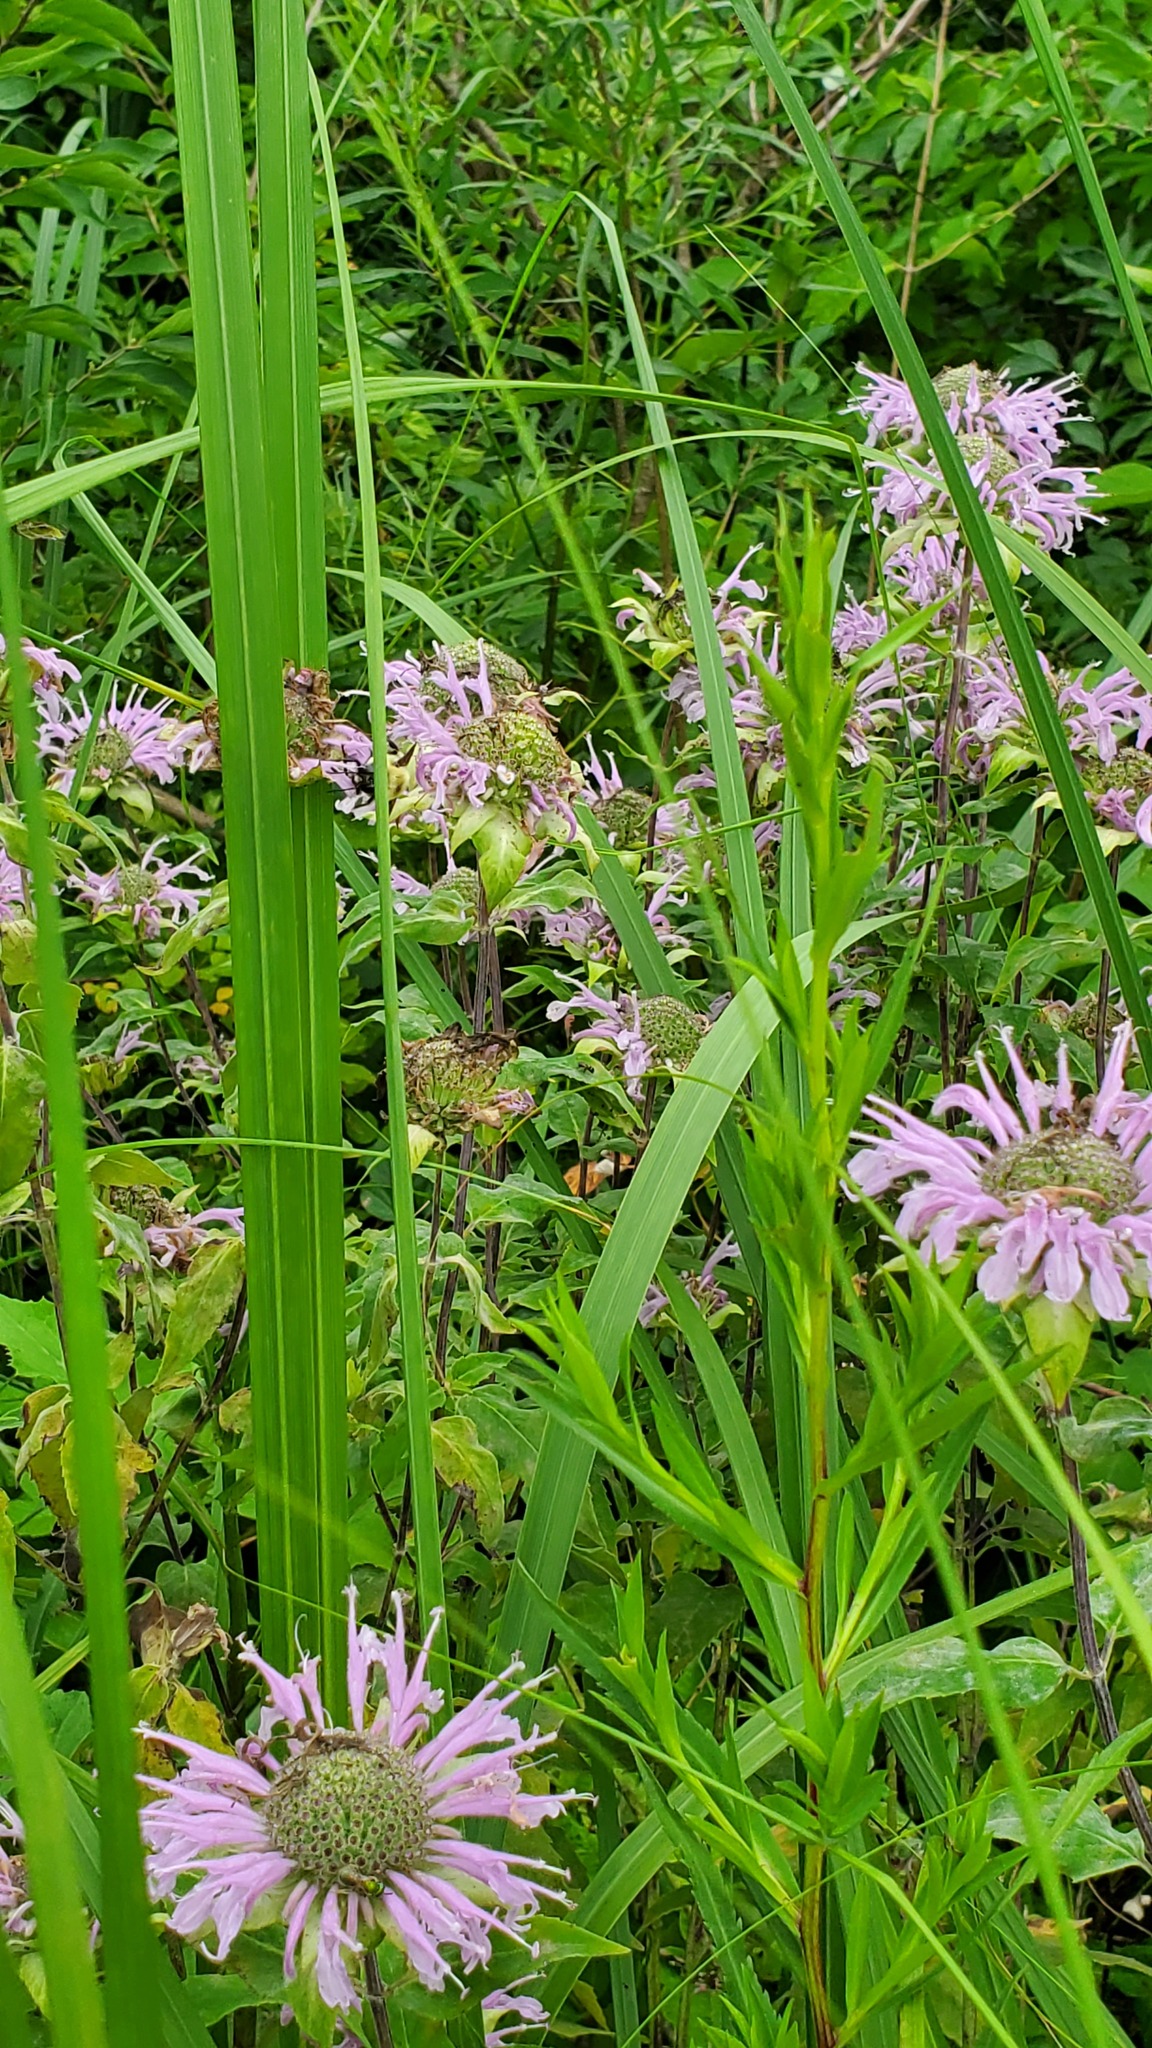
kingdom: Plantae
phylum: Tracheophyta
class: Magnoliopsida
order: Lamiales
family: Lamiaceae
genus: Monarda
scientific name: Monarda fistulosa
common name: Purple beebalm
